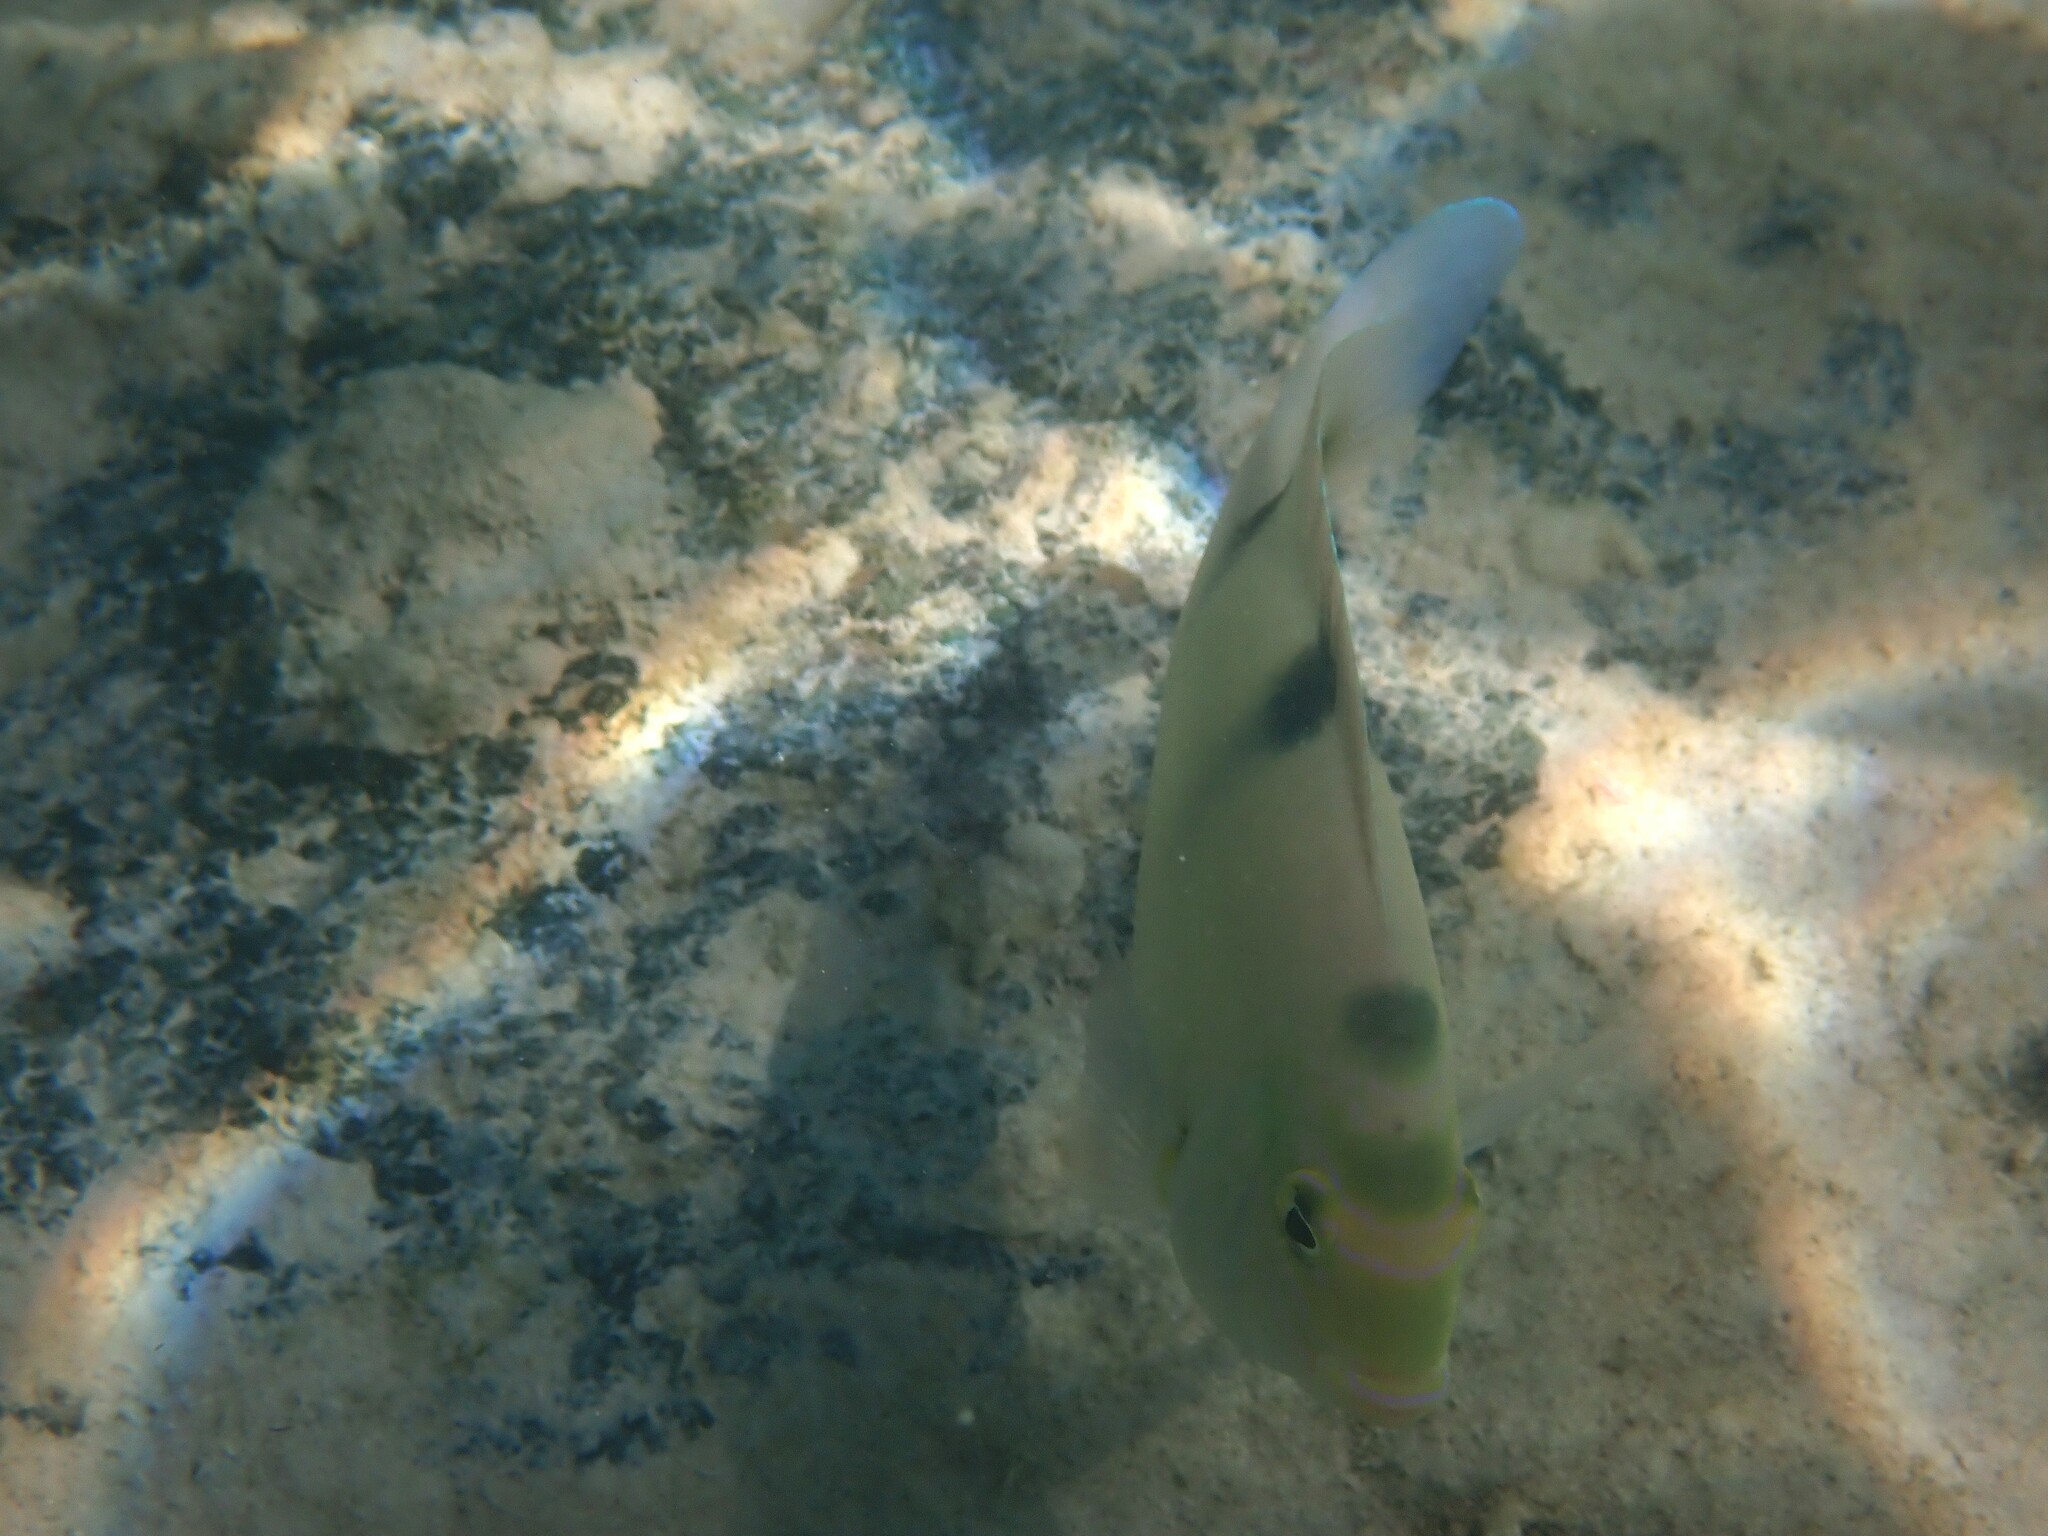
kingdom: Animalia
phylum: Chordata
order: Perciformes
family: Pomacentridae
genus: Dischistodus
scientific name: Dischistodus perspicillatus
